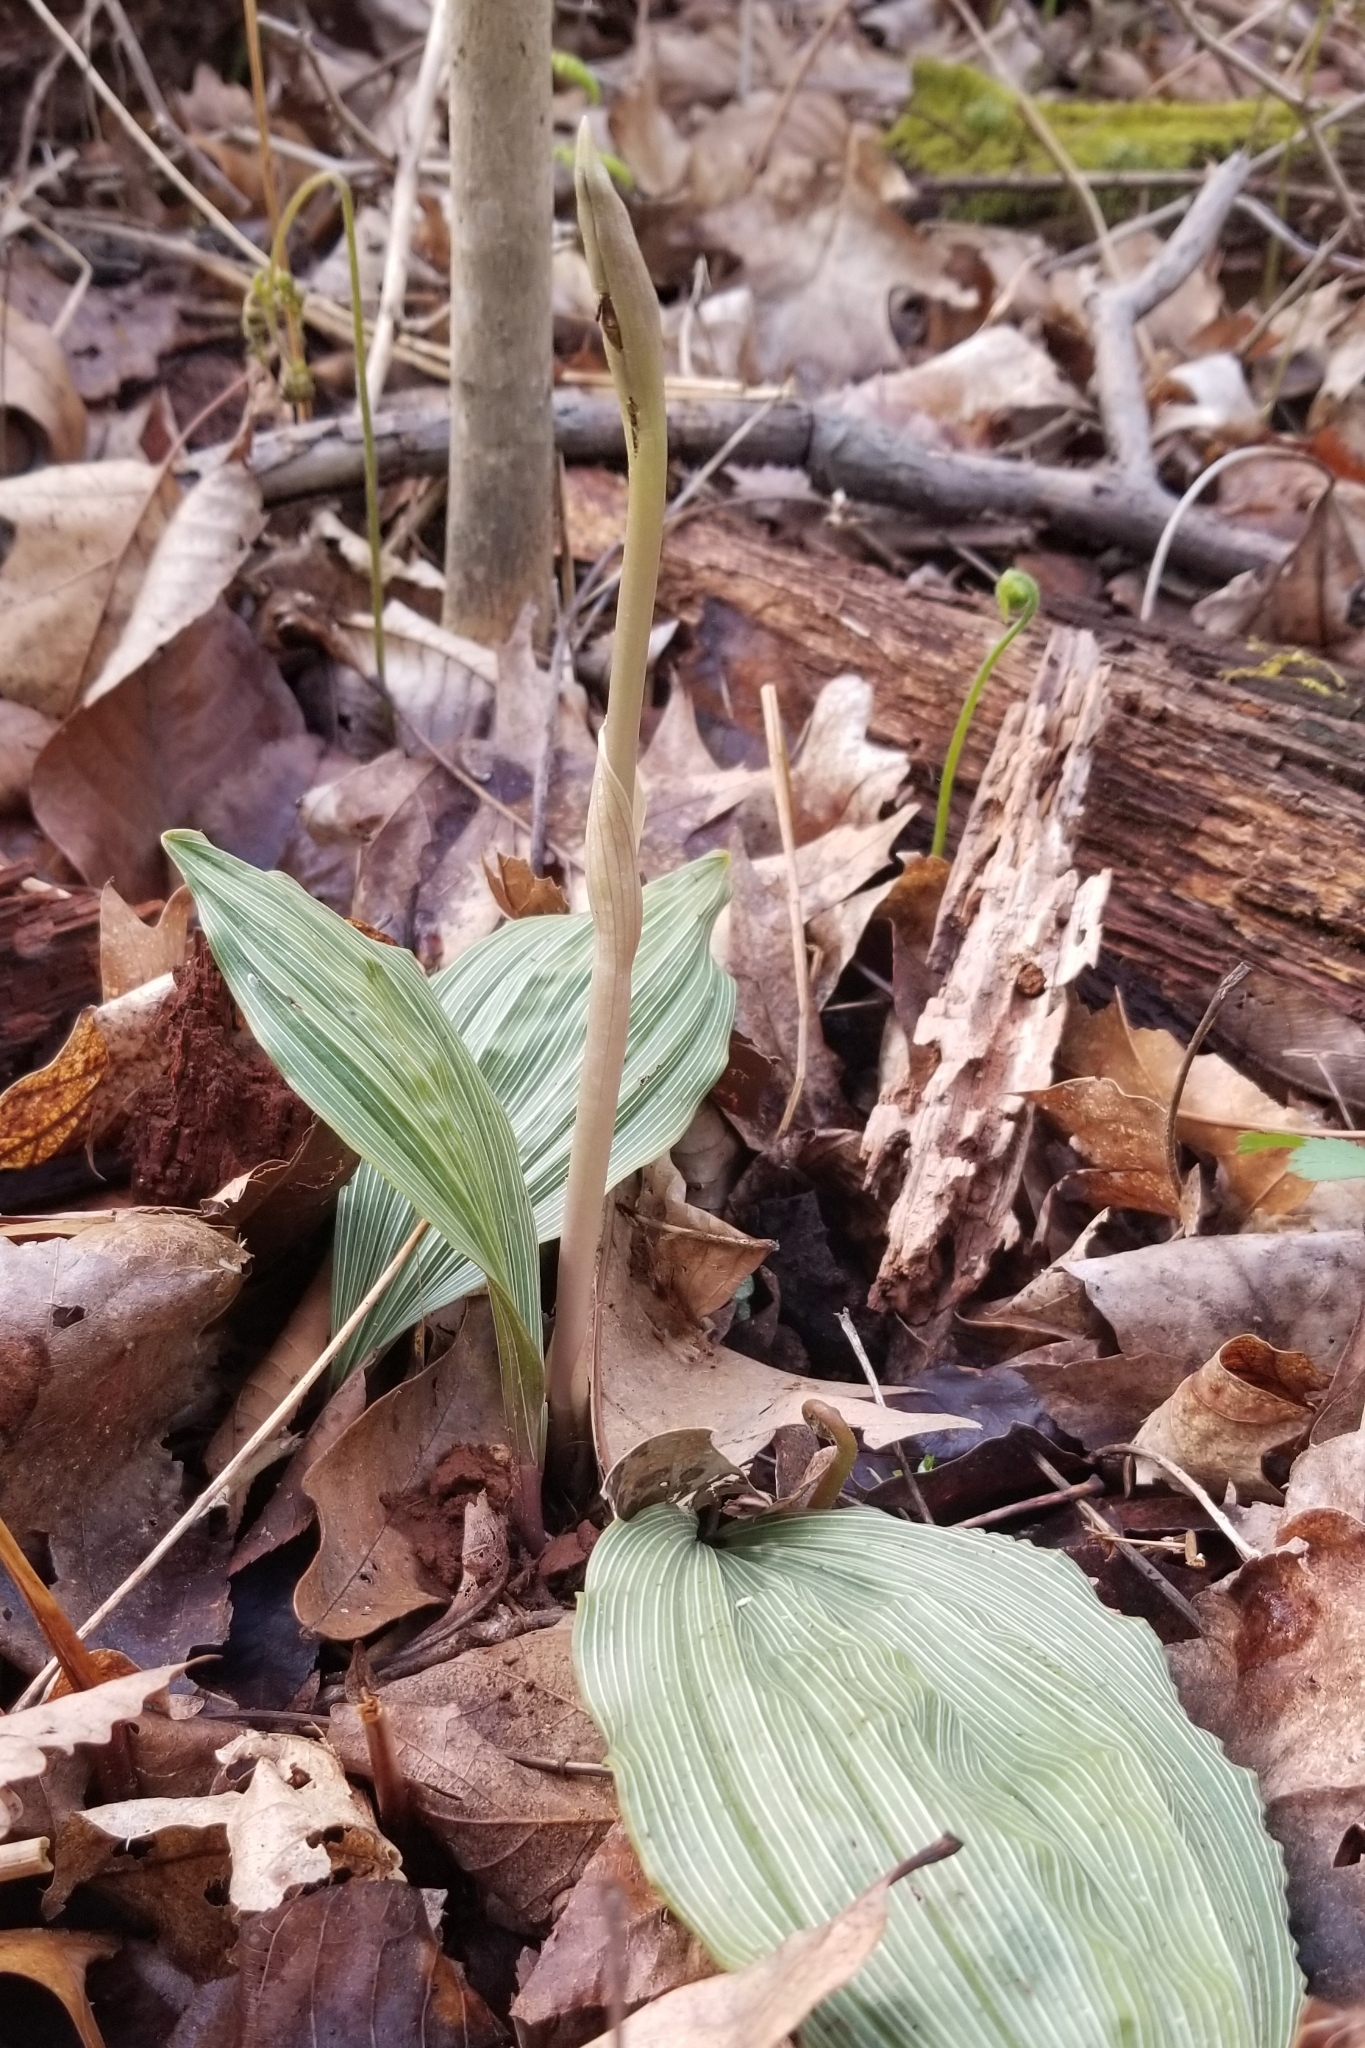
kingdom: Plantae
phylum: Tracheophyta
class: Liliopsida
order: Asparagales
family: Orchidaceae
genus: Aplectrum
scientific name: Aplectrum hyemale
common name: Adam-and-eve
